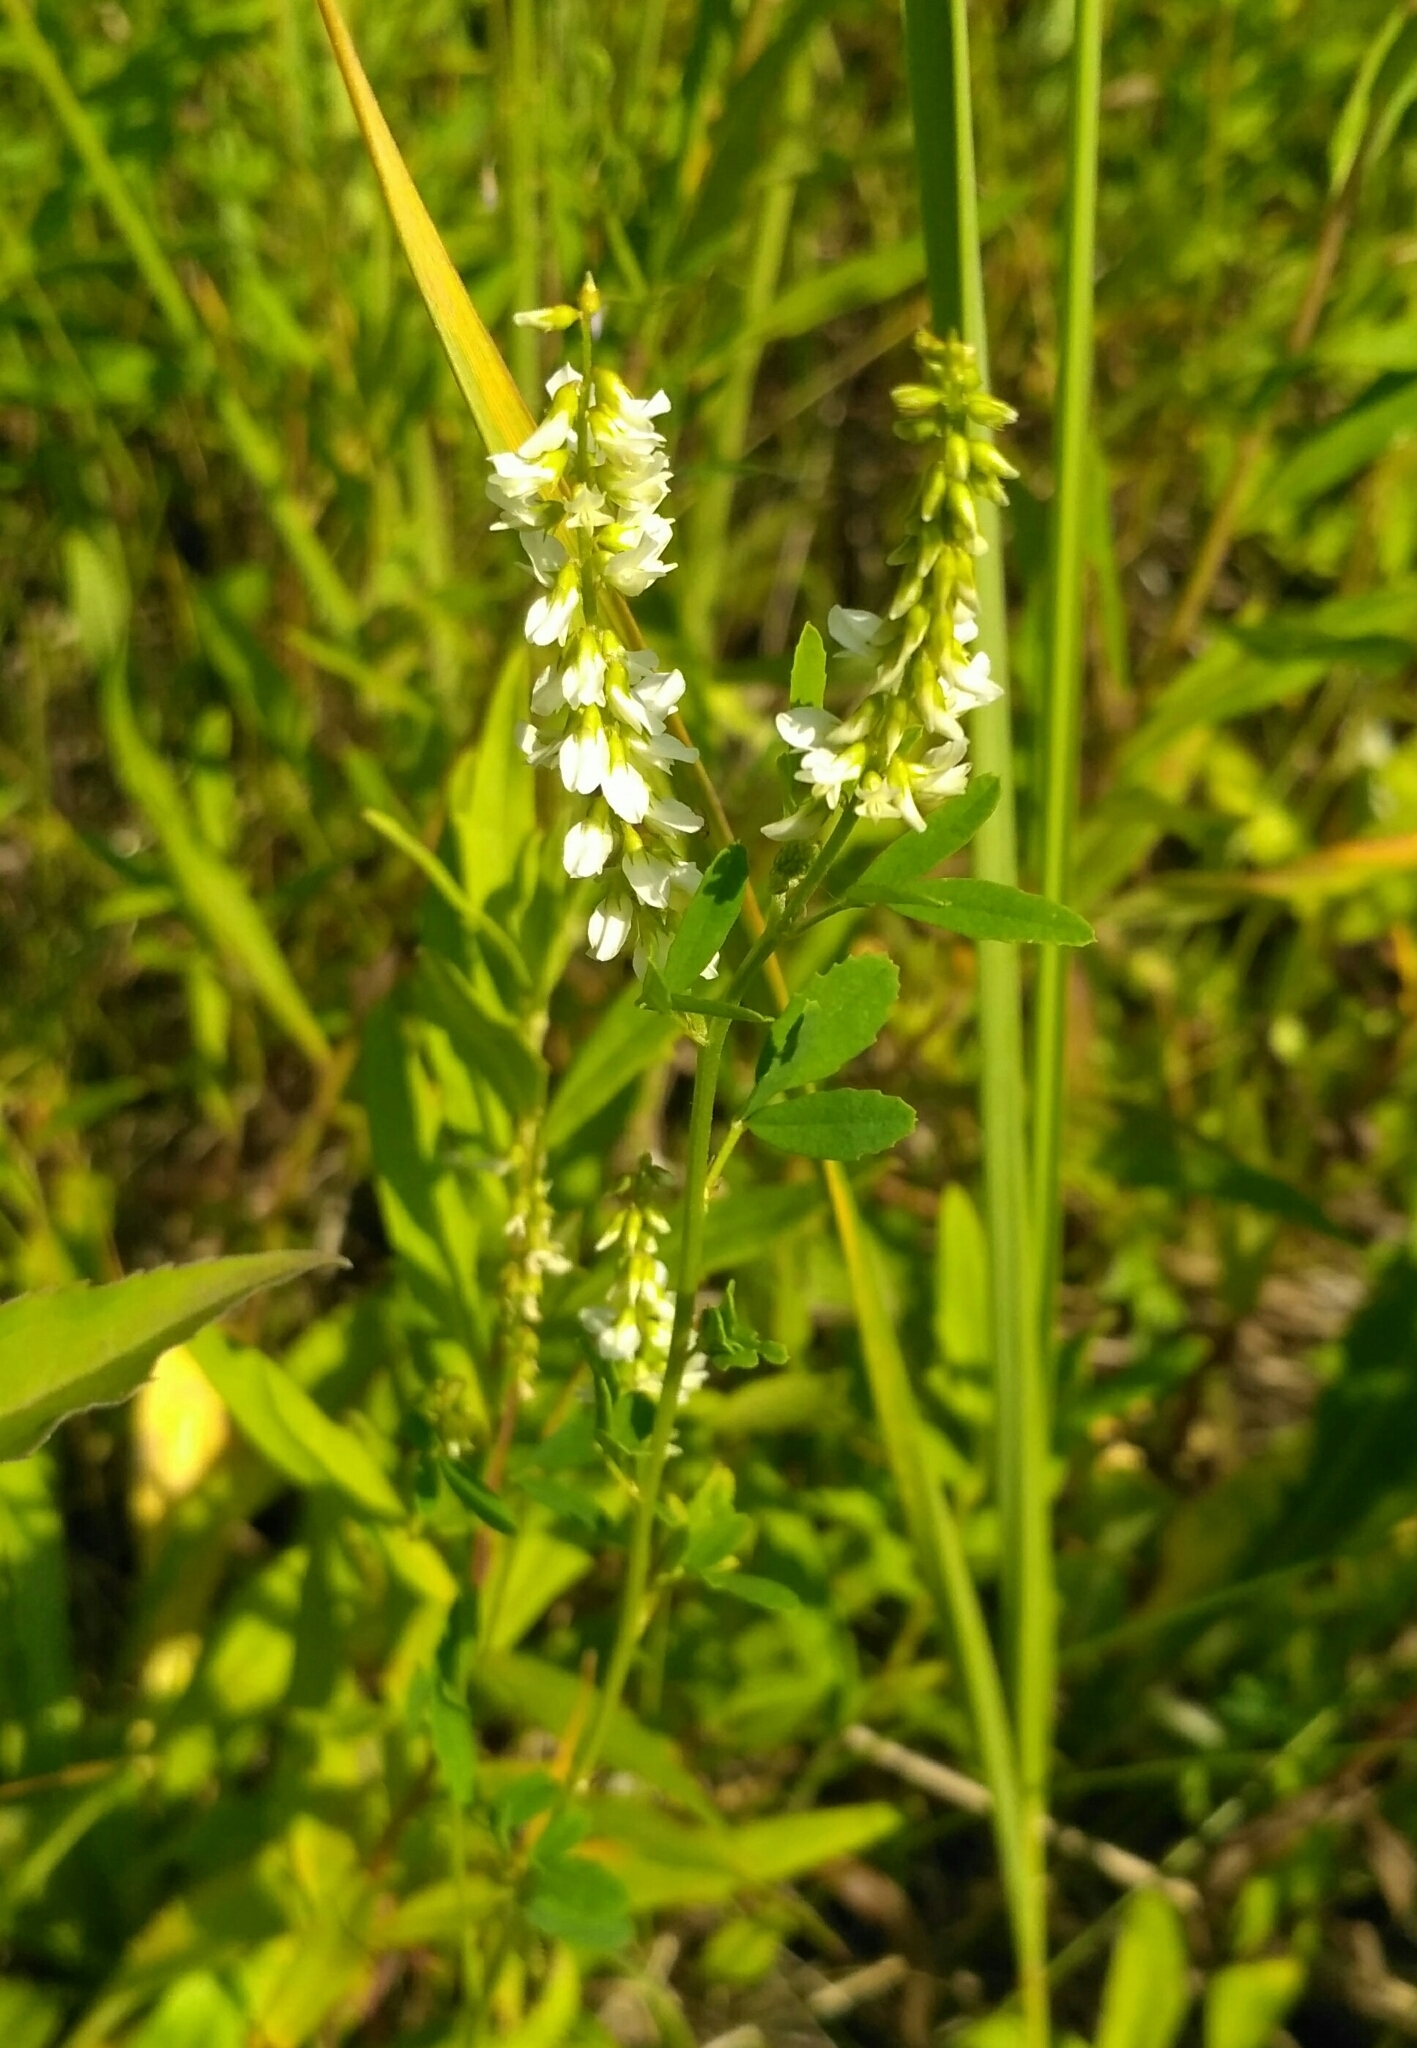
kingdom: Plantae
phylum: Tracheophyta
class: Magnoliopsida
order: Fabales
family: Fabaceae
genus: Melilotus
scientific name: Melilotus albus
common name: White melilot
